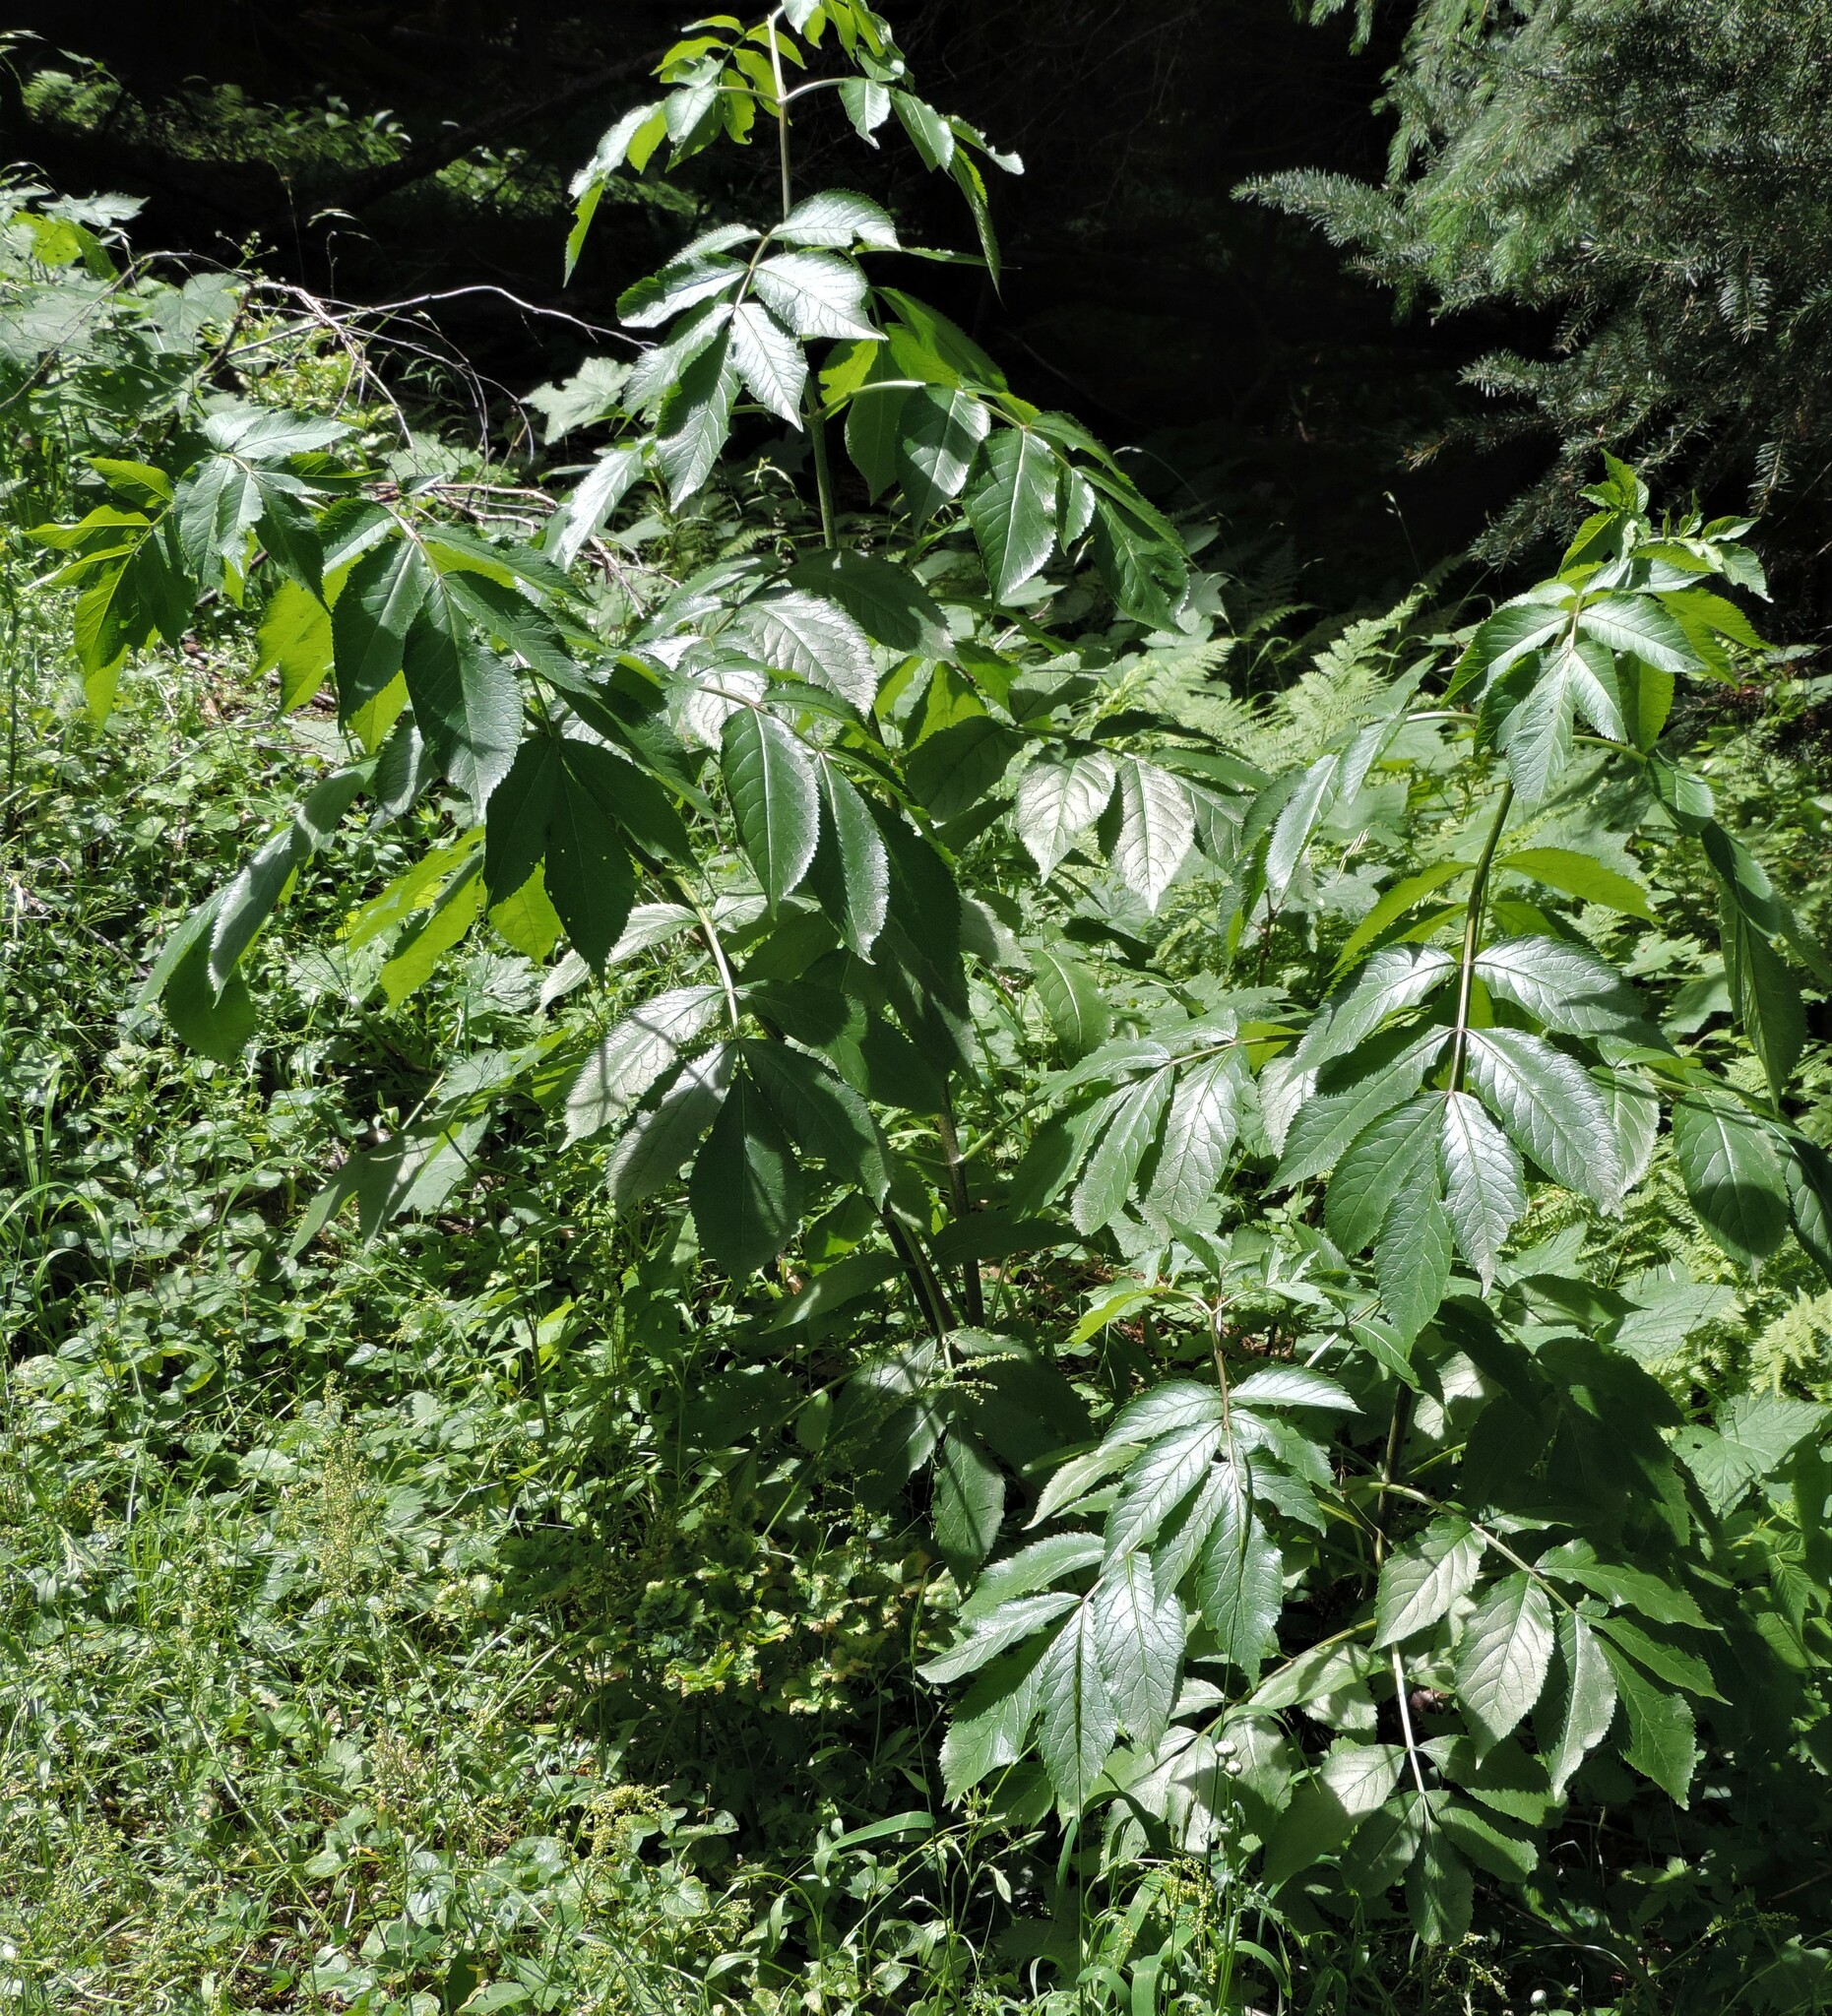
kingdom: Plantae
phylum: Tracheophyta
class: Magnoliopsida
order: Dipsacales
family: Viburnaceae
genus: Sambucus
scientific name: Sambucus racemosa
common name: Red-berried elder
